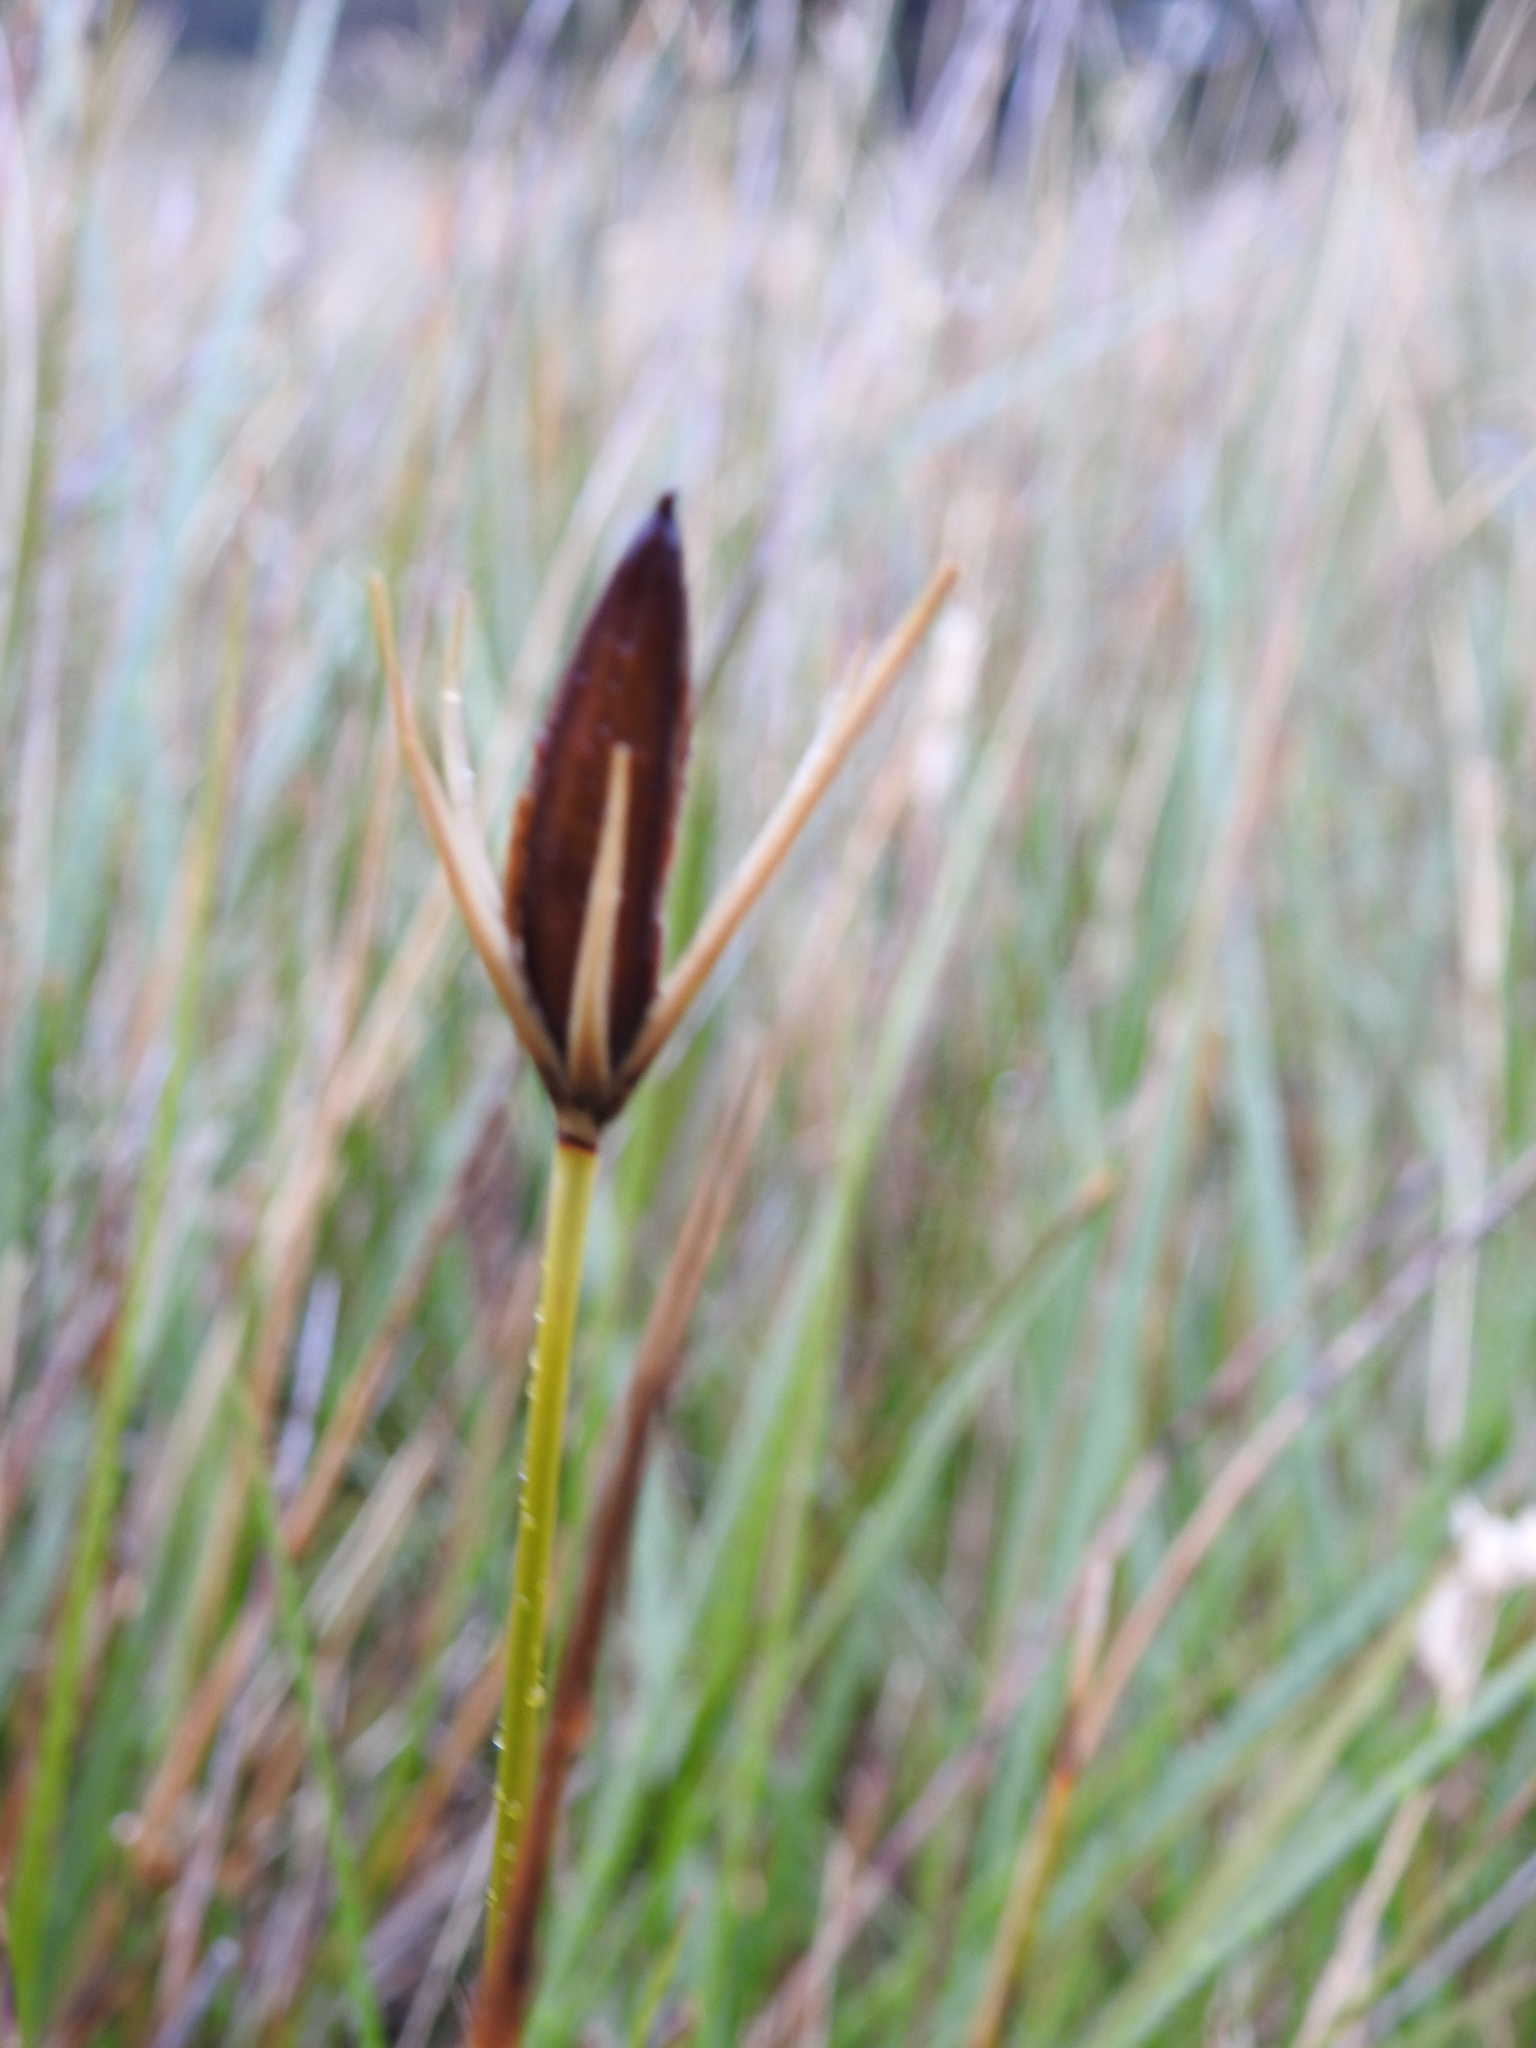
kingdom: Plantae
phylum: Tracheophyta
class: Liliopsida
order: Poales
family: Juncaceae
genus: Marsippospermum
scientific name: Marsippospermum grandiflorum
